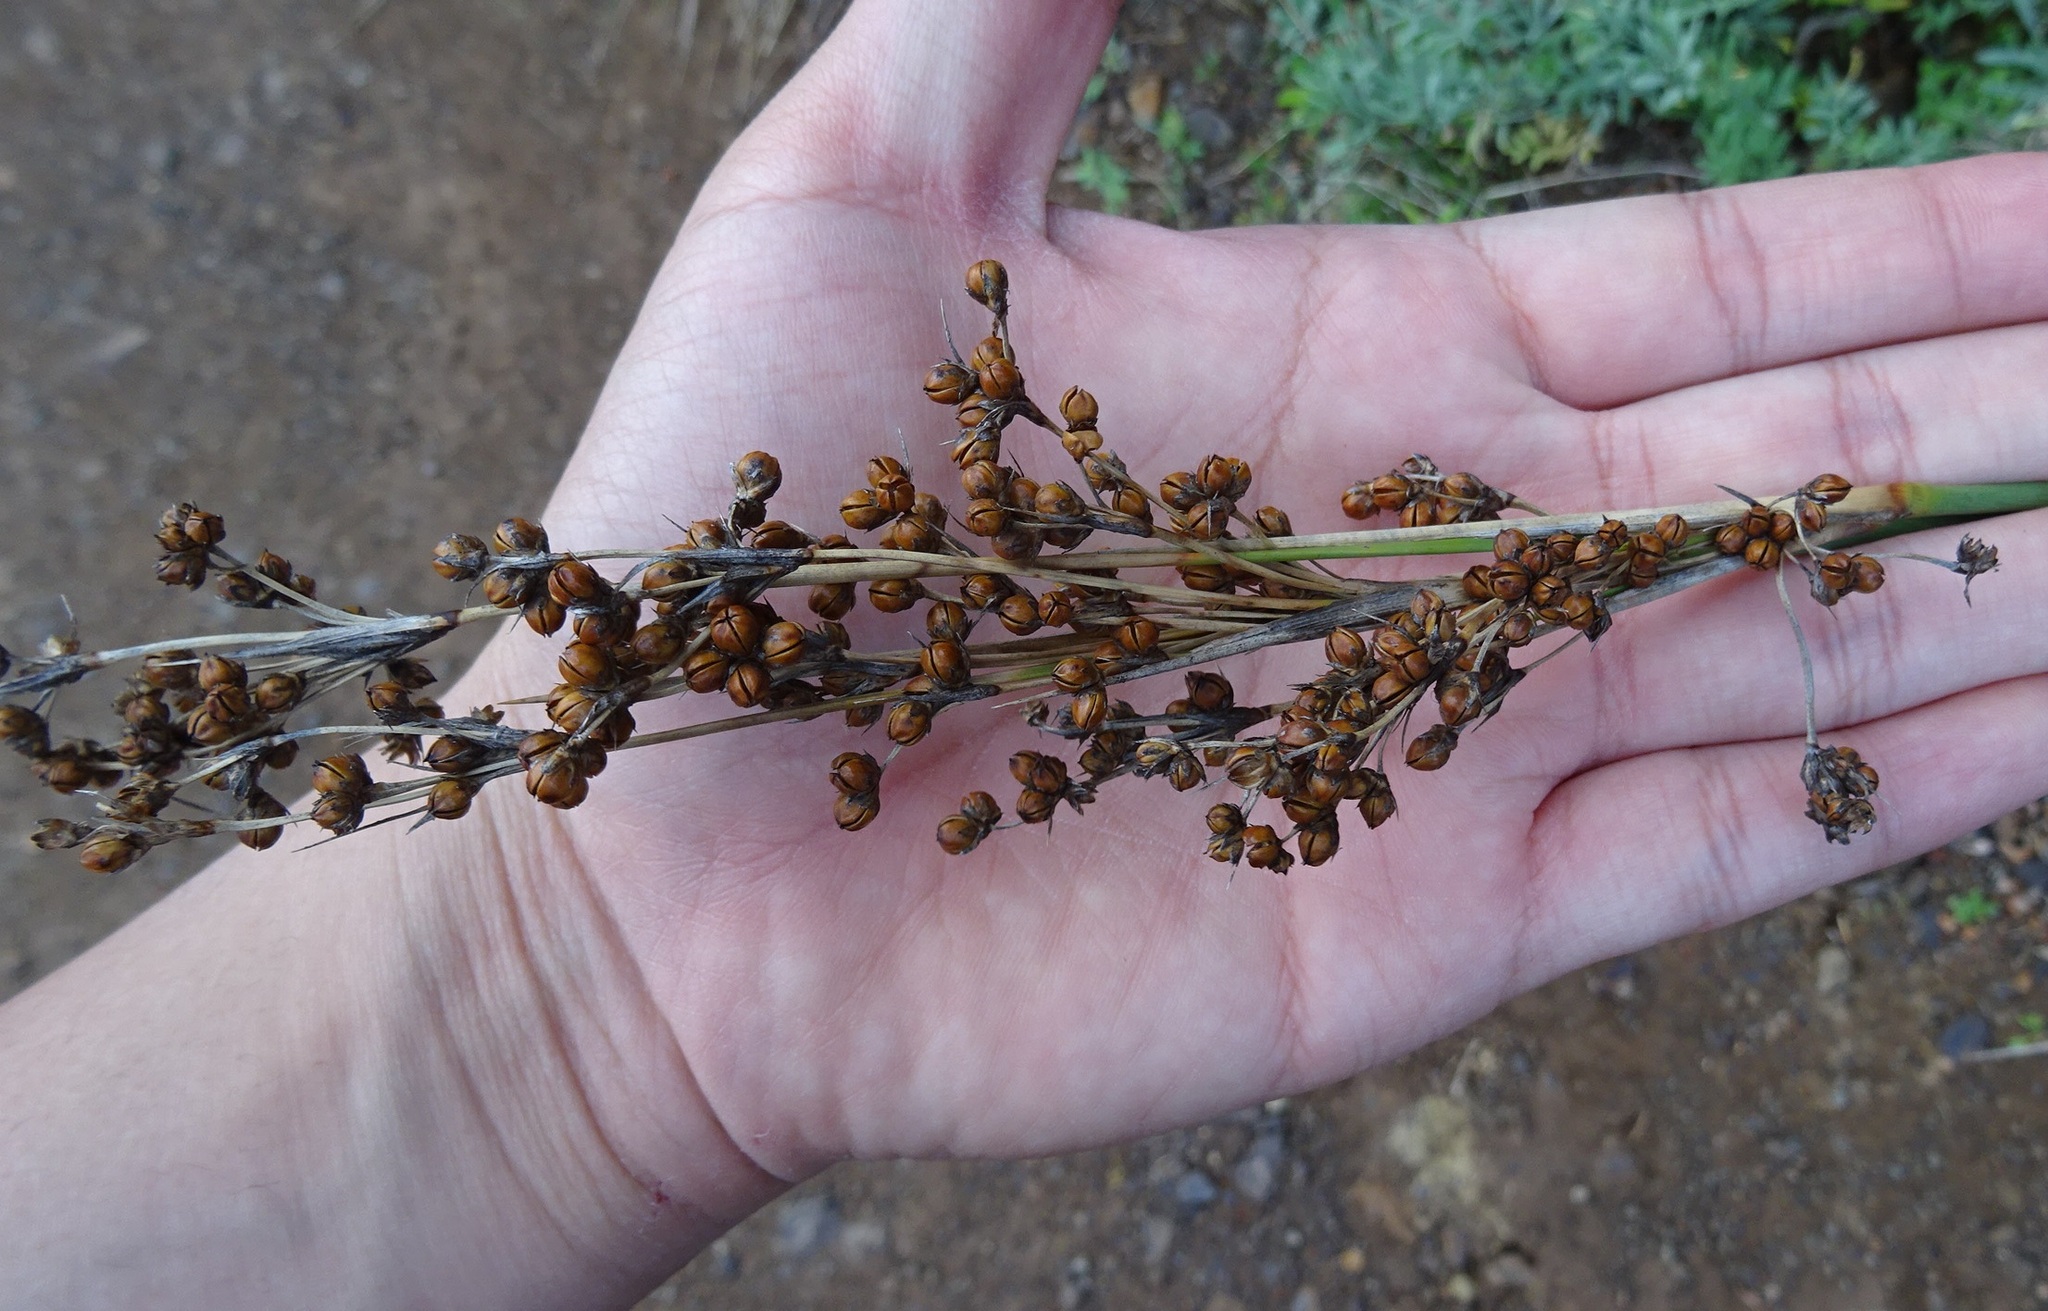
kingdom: Plantae
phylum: Tracheophyta
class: Liliopsida
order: Poales
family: Juncaceae
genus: Juncus
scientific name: Juncus acutus
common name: Sharp rush
